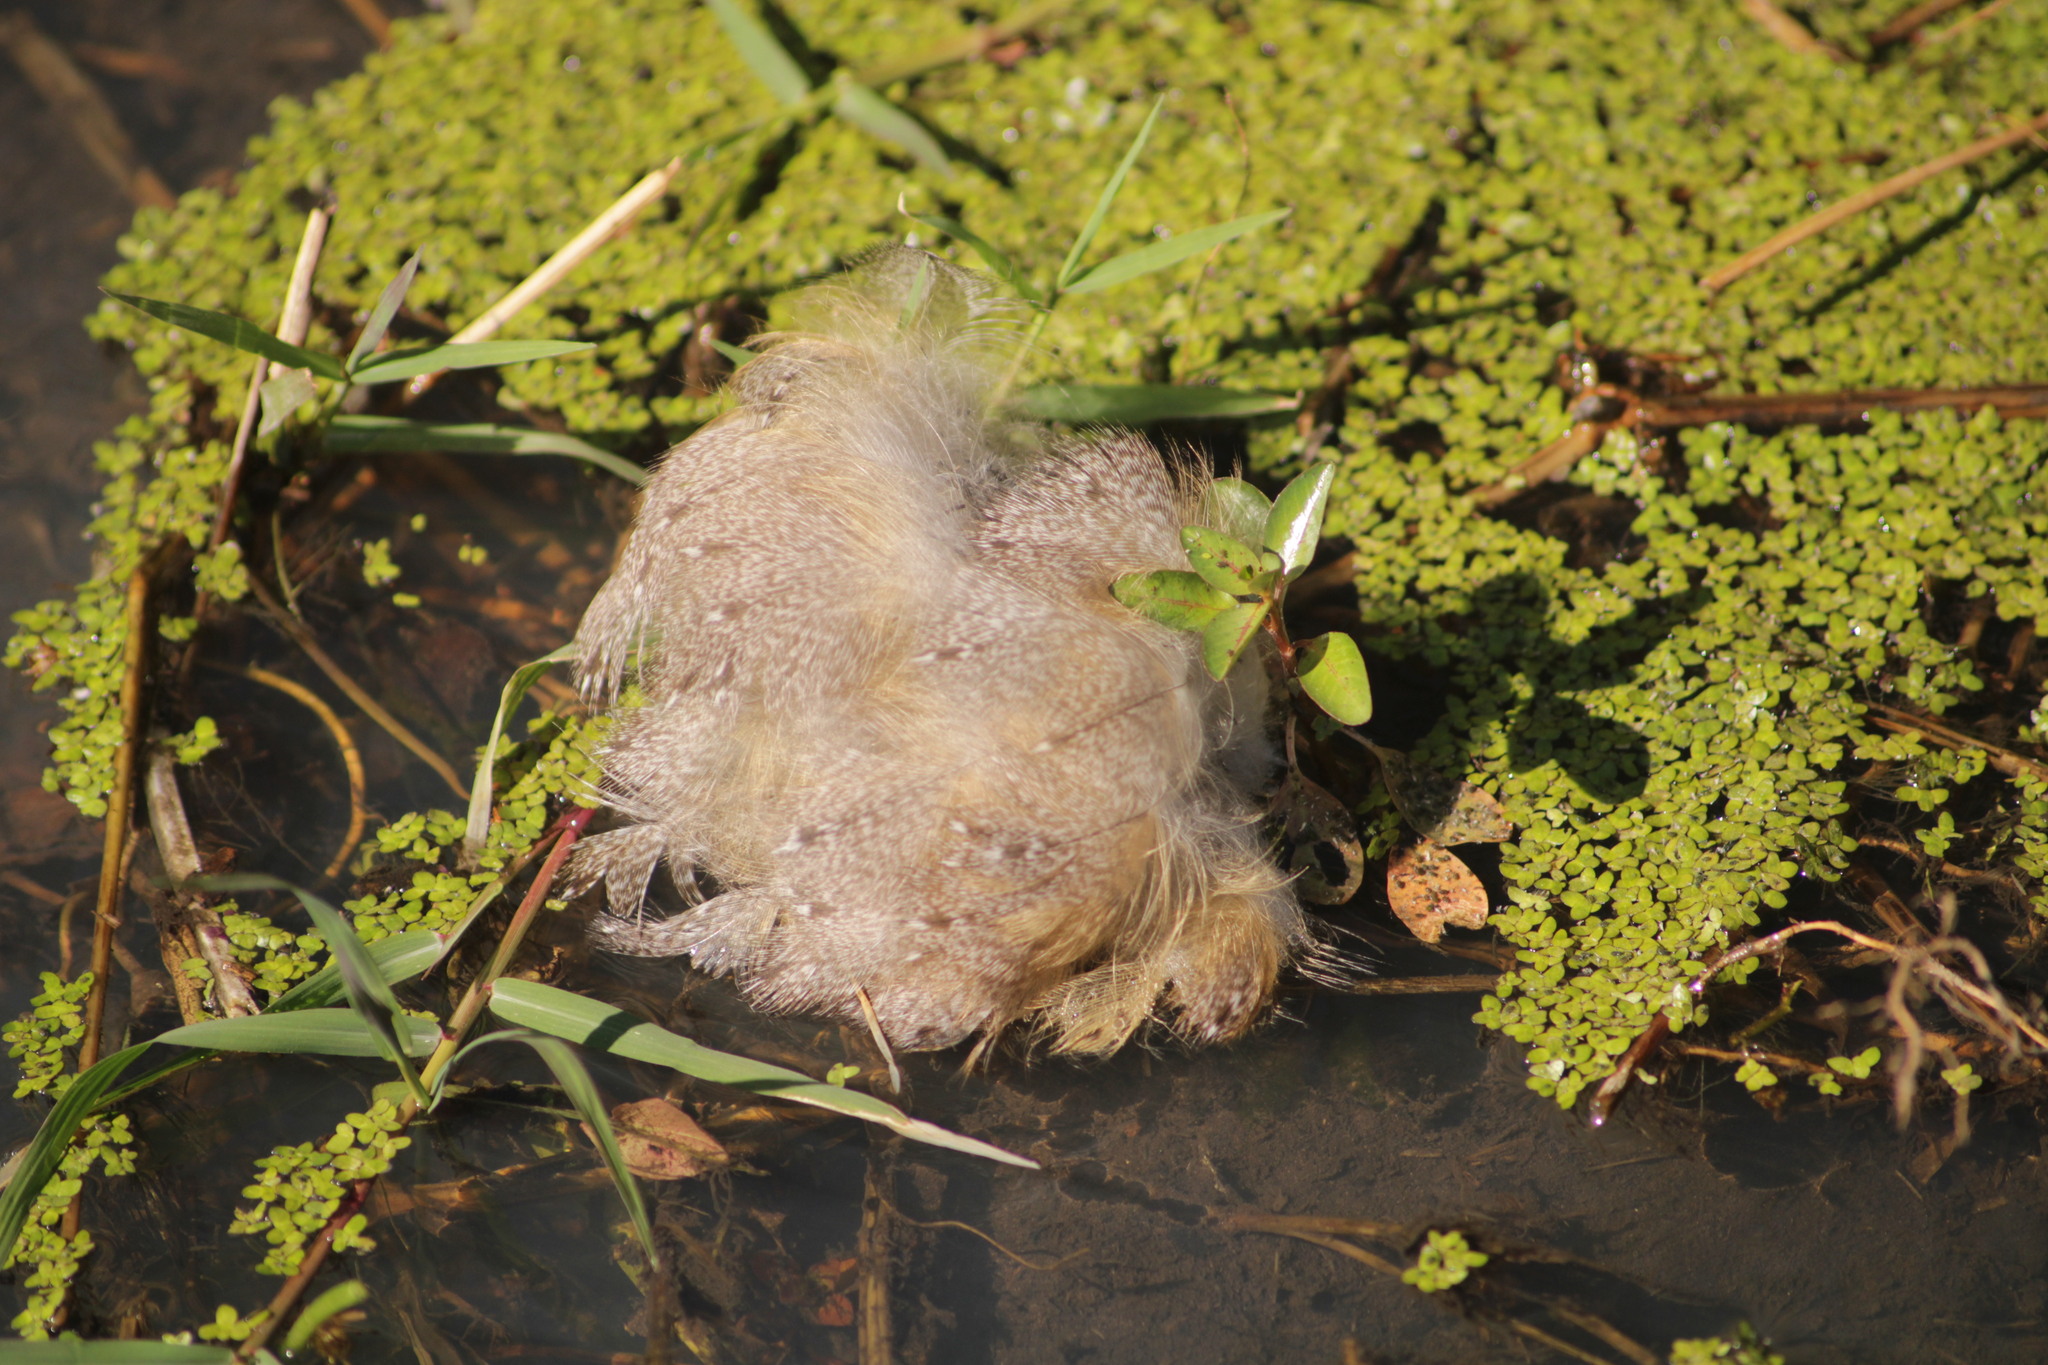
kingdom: Animalia
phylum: Chordata
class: Aves
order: Strigiformes
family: Tytonidae
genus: Tyto
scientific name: Tyto alba
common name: Barn owl
